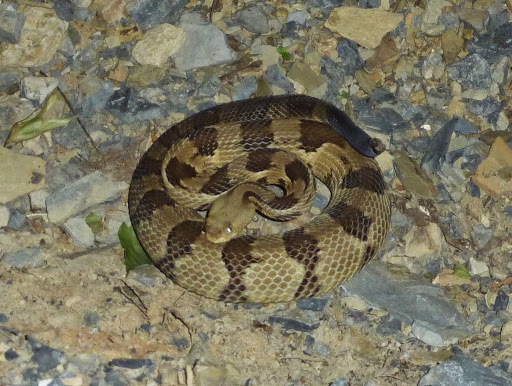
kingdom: Animalia
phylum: Chordata
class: Squamata
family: Viperidae
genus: Crotalus
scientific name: Crotalus horridus
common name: Timber rattlesnake
